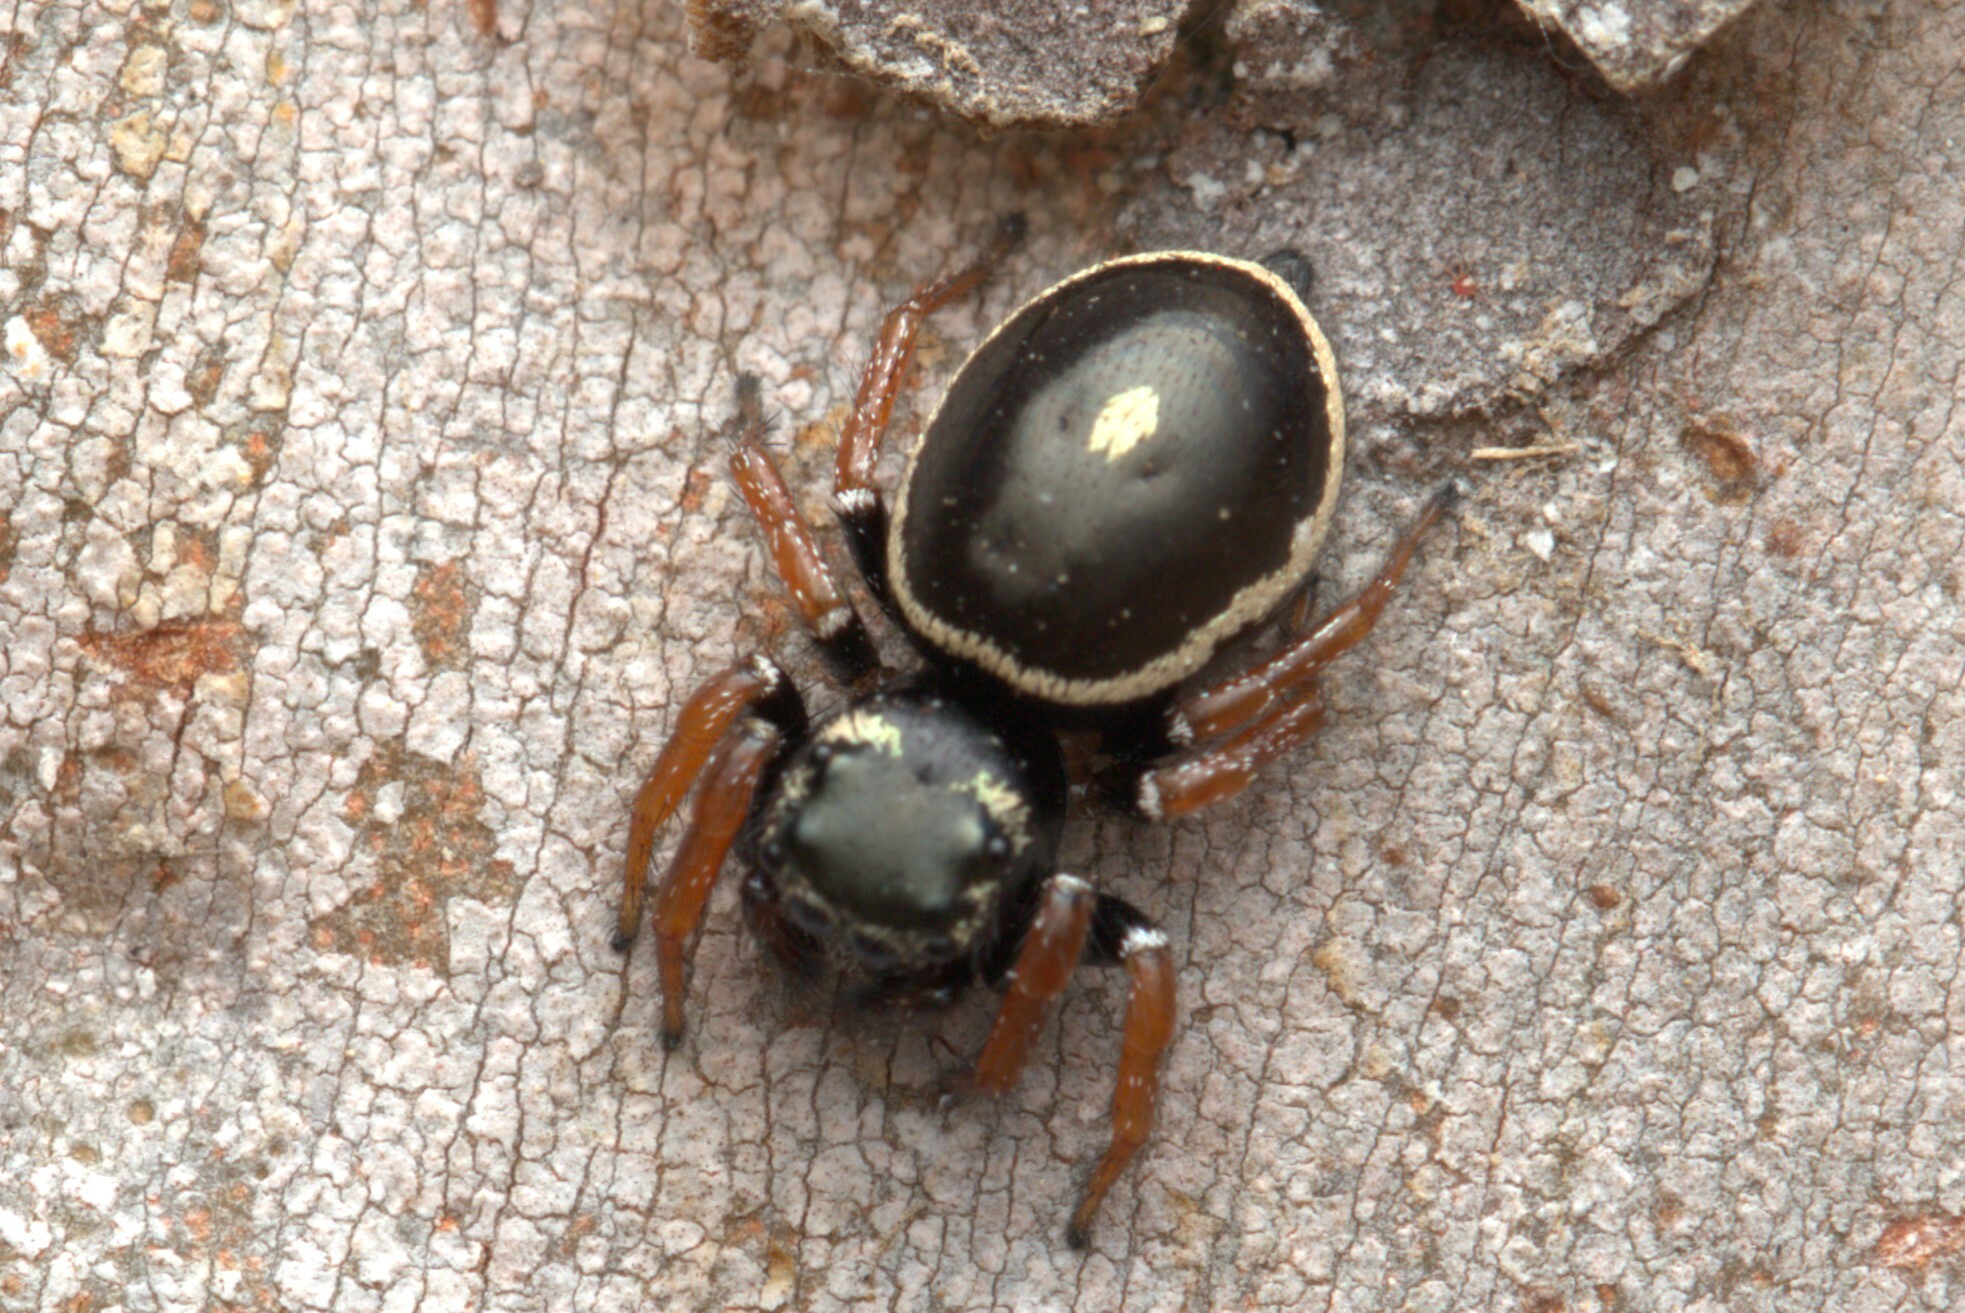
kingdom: Animalia
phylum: Arthropoda
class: Arachnida
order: Araneae
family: Salticidae
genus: Zenodorus
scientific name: Zenodorus orbiculatus
